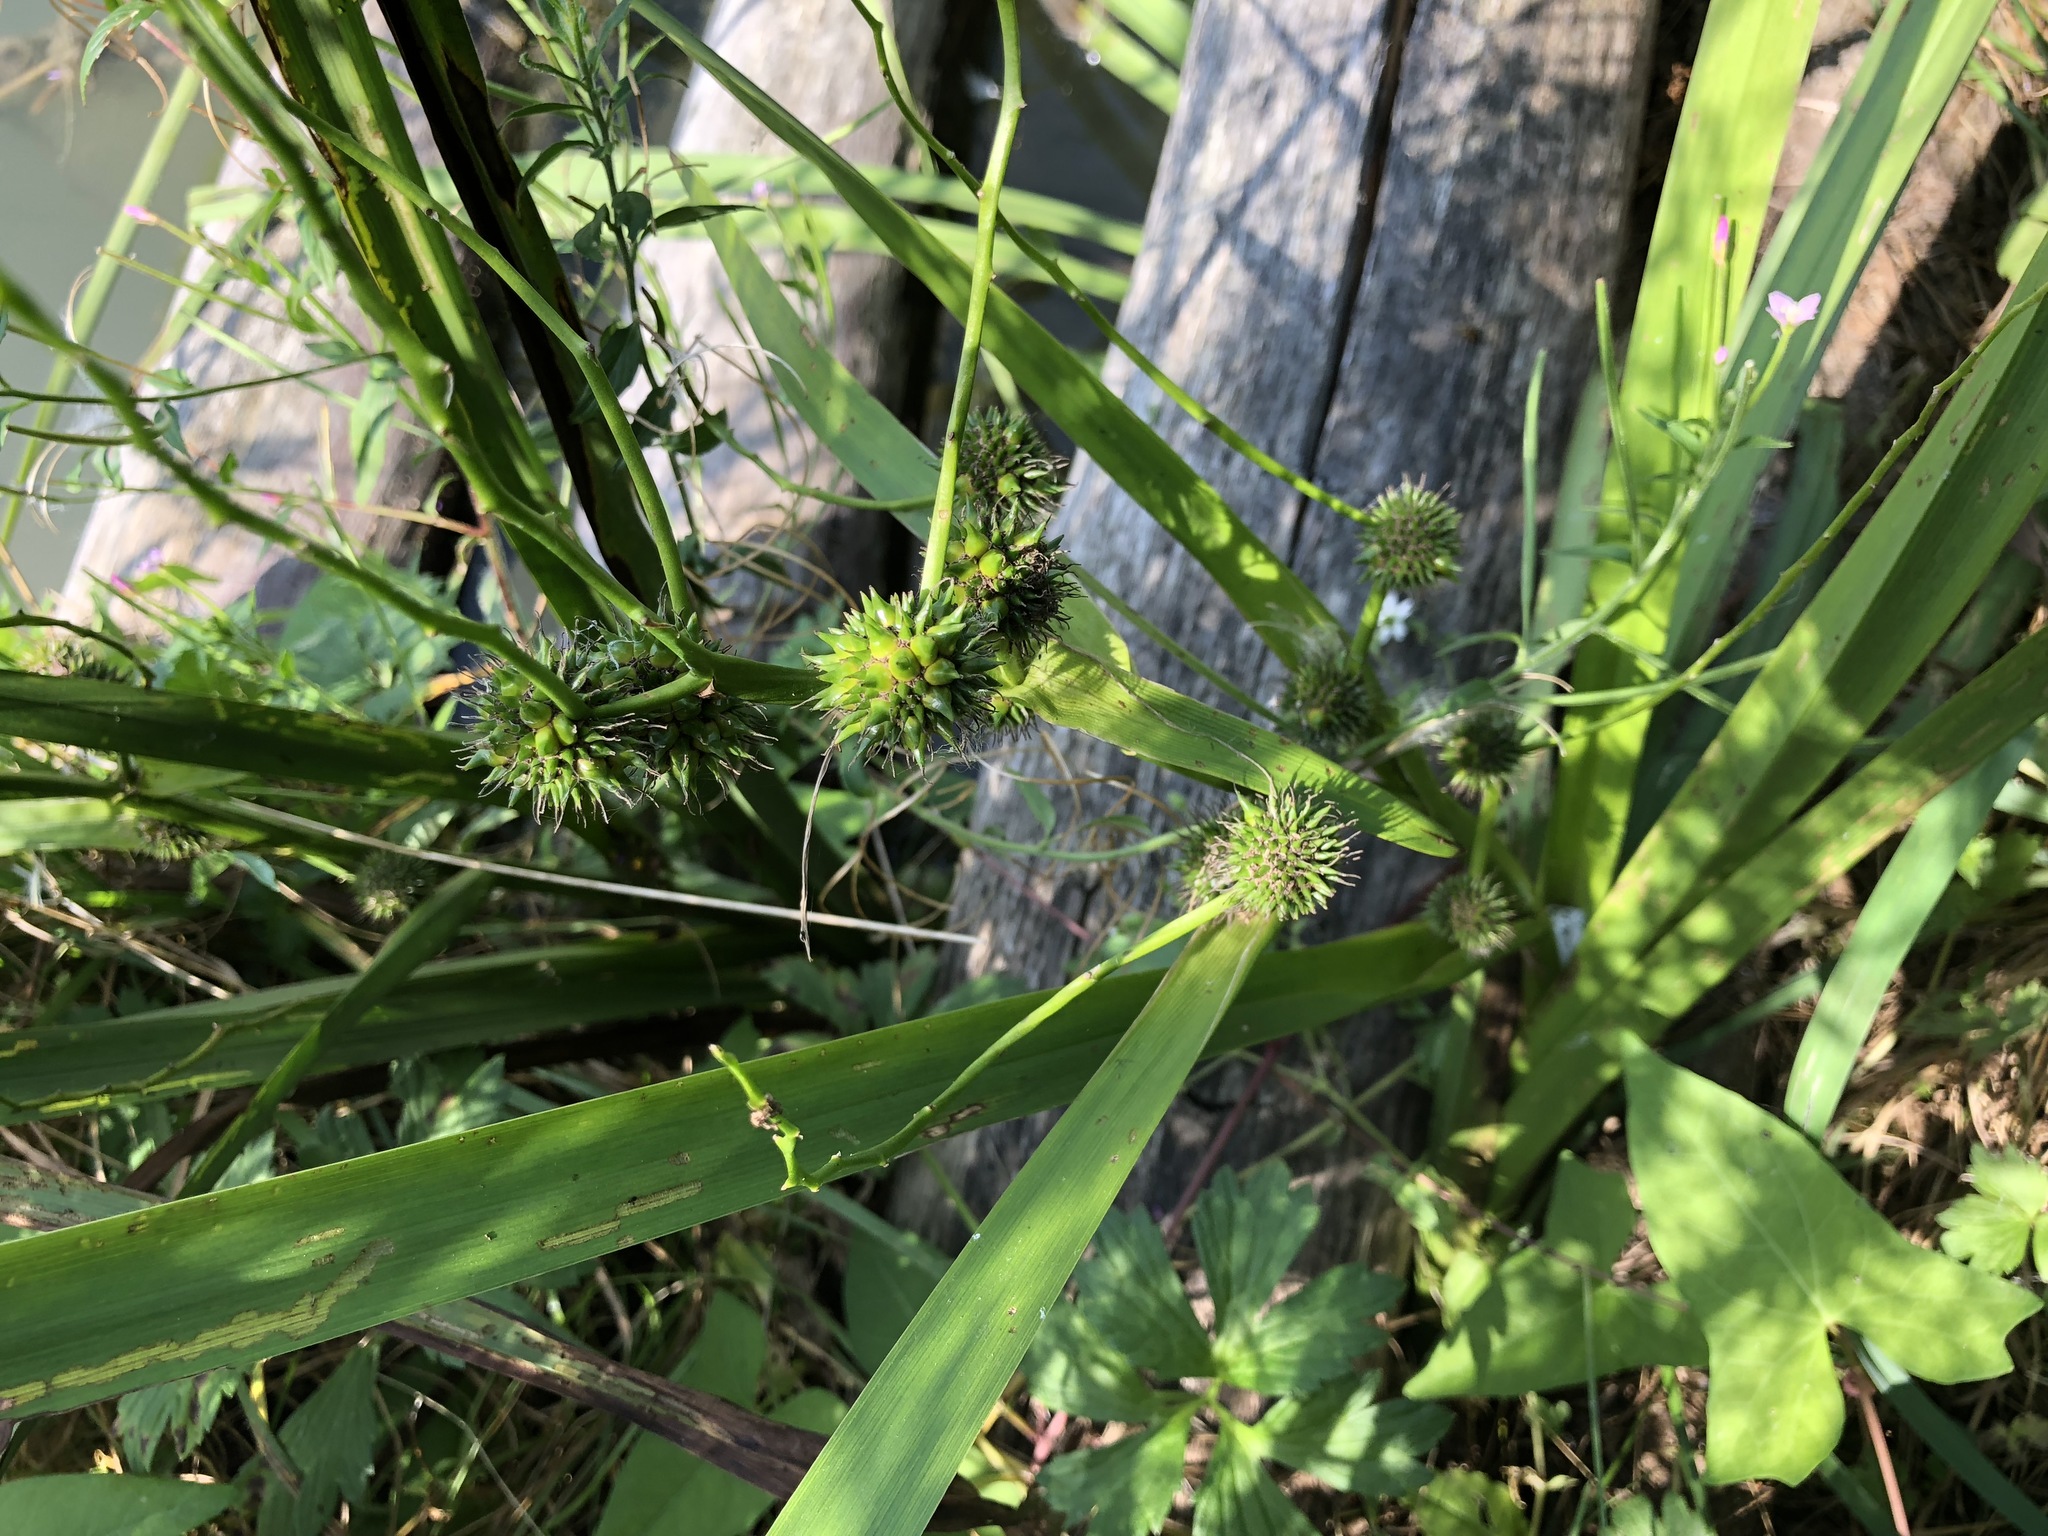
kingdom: Plantae
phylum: Tracheophyta
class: Liliopsida
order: Poales
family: Typhaceae
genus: Sparganium
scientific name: Sparganium erectum
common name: Branched bur-reed
